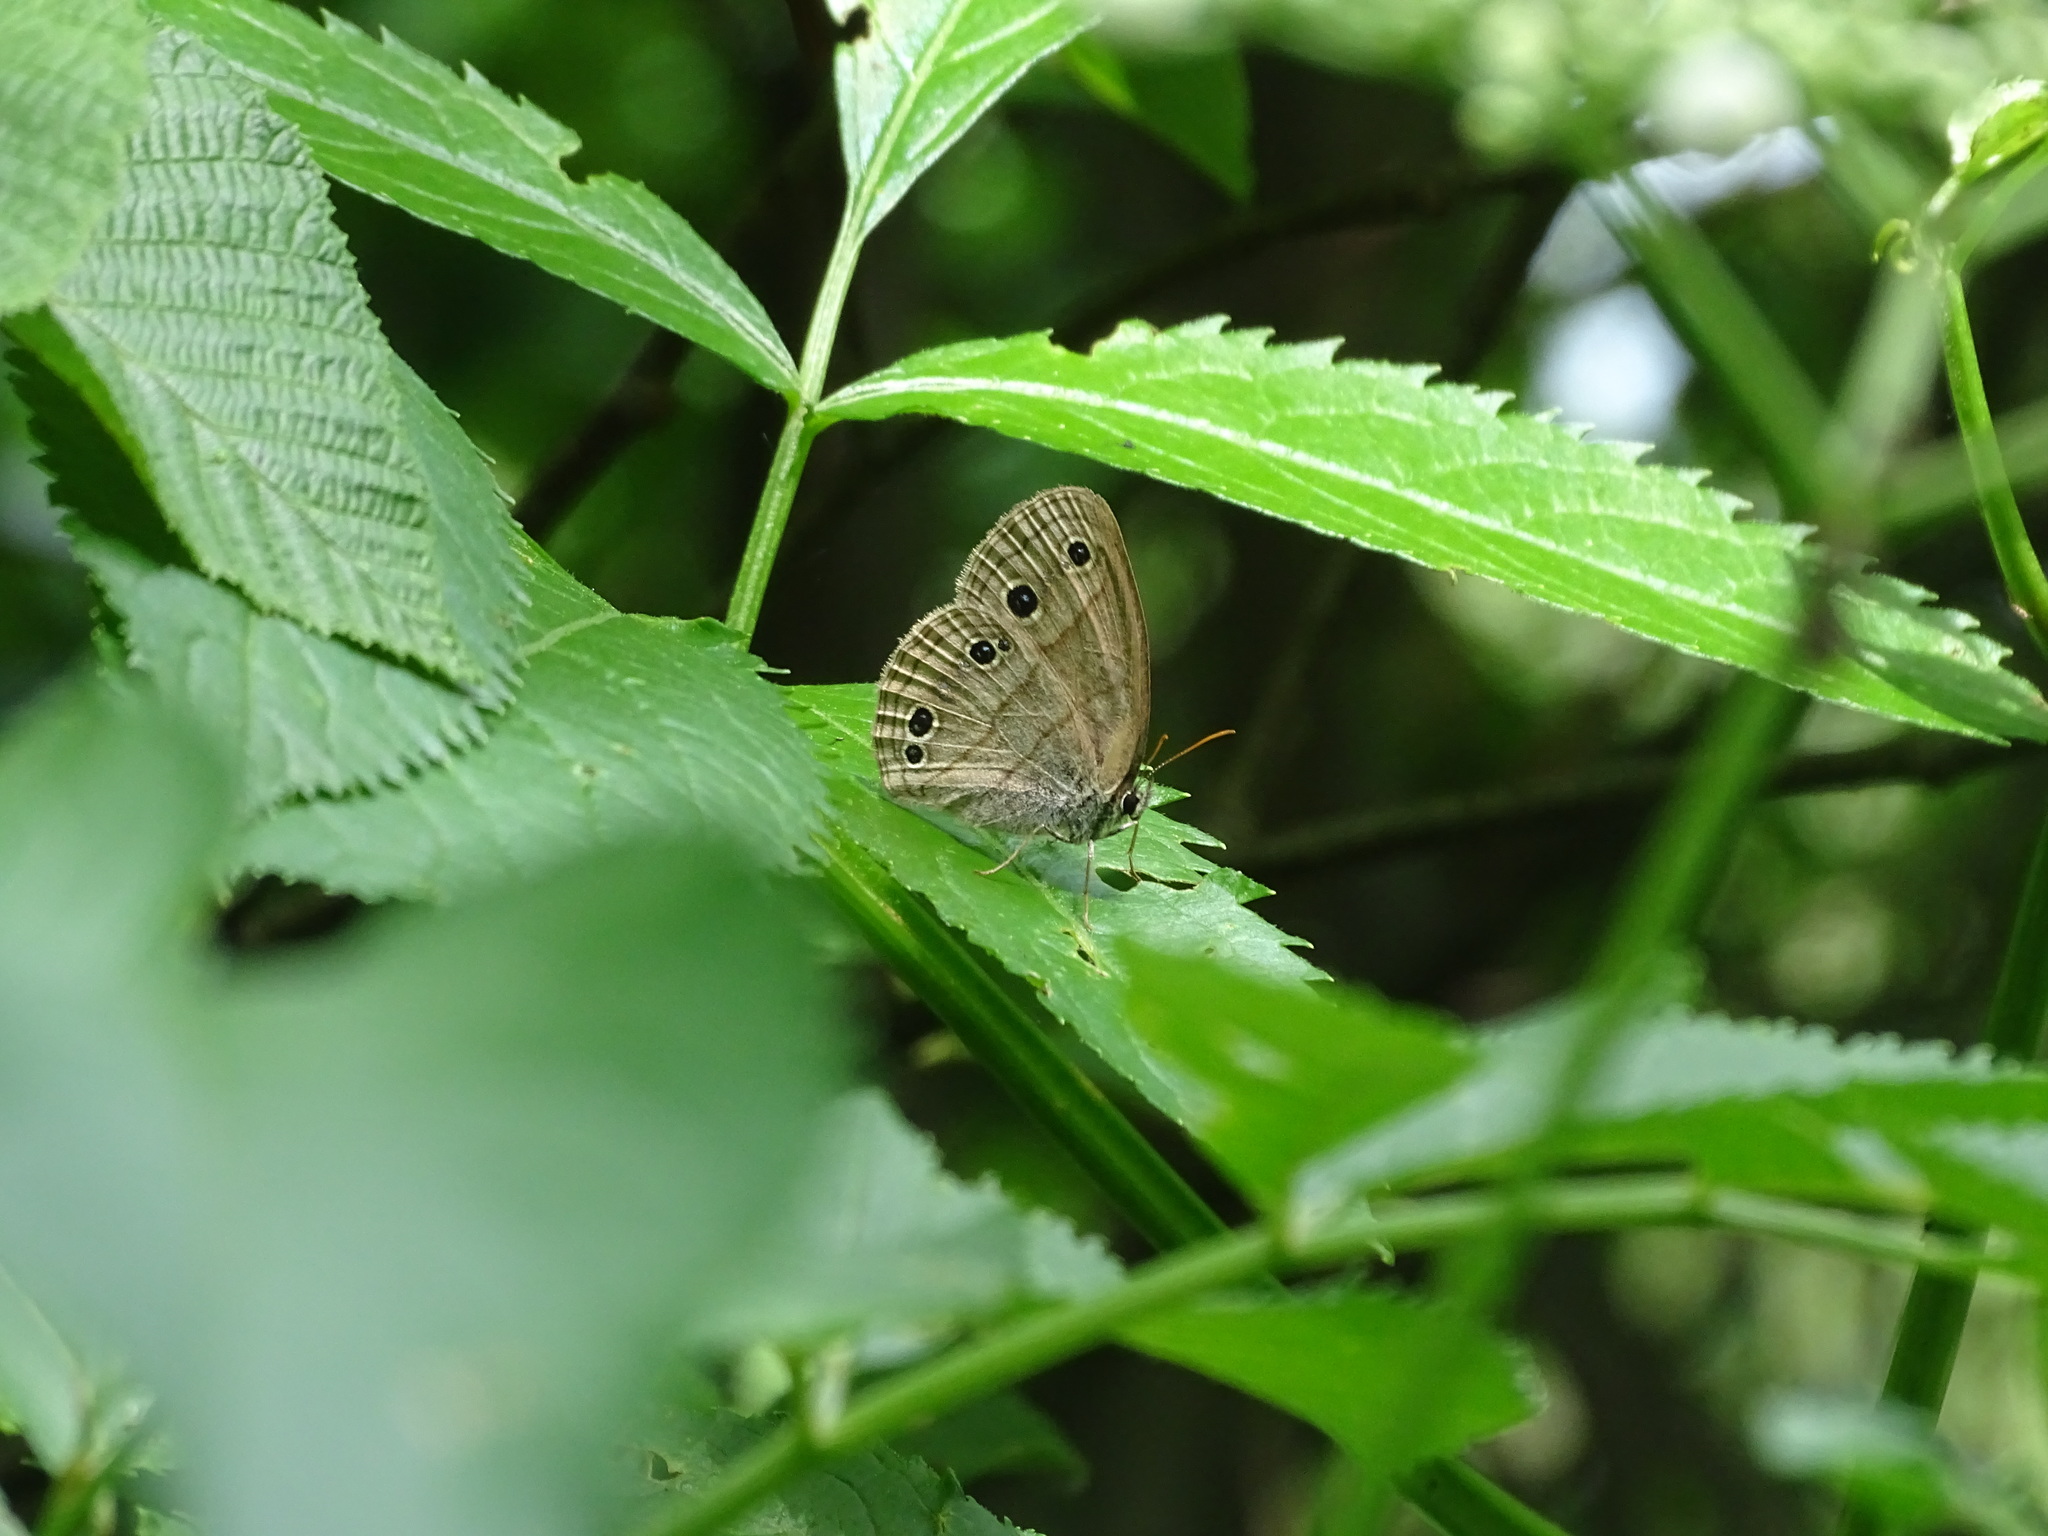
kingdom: Animalia
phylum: Arthropoda
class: Insecta
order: Lepidoptera
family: Nymphalidae
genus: Euptychia
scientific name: Euptychia cymela
